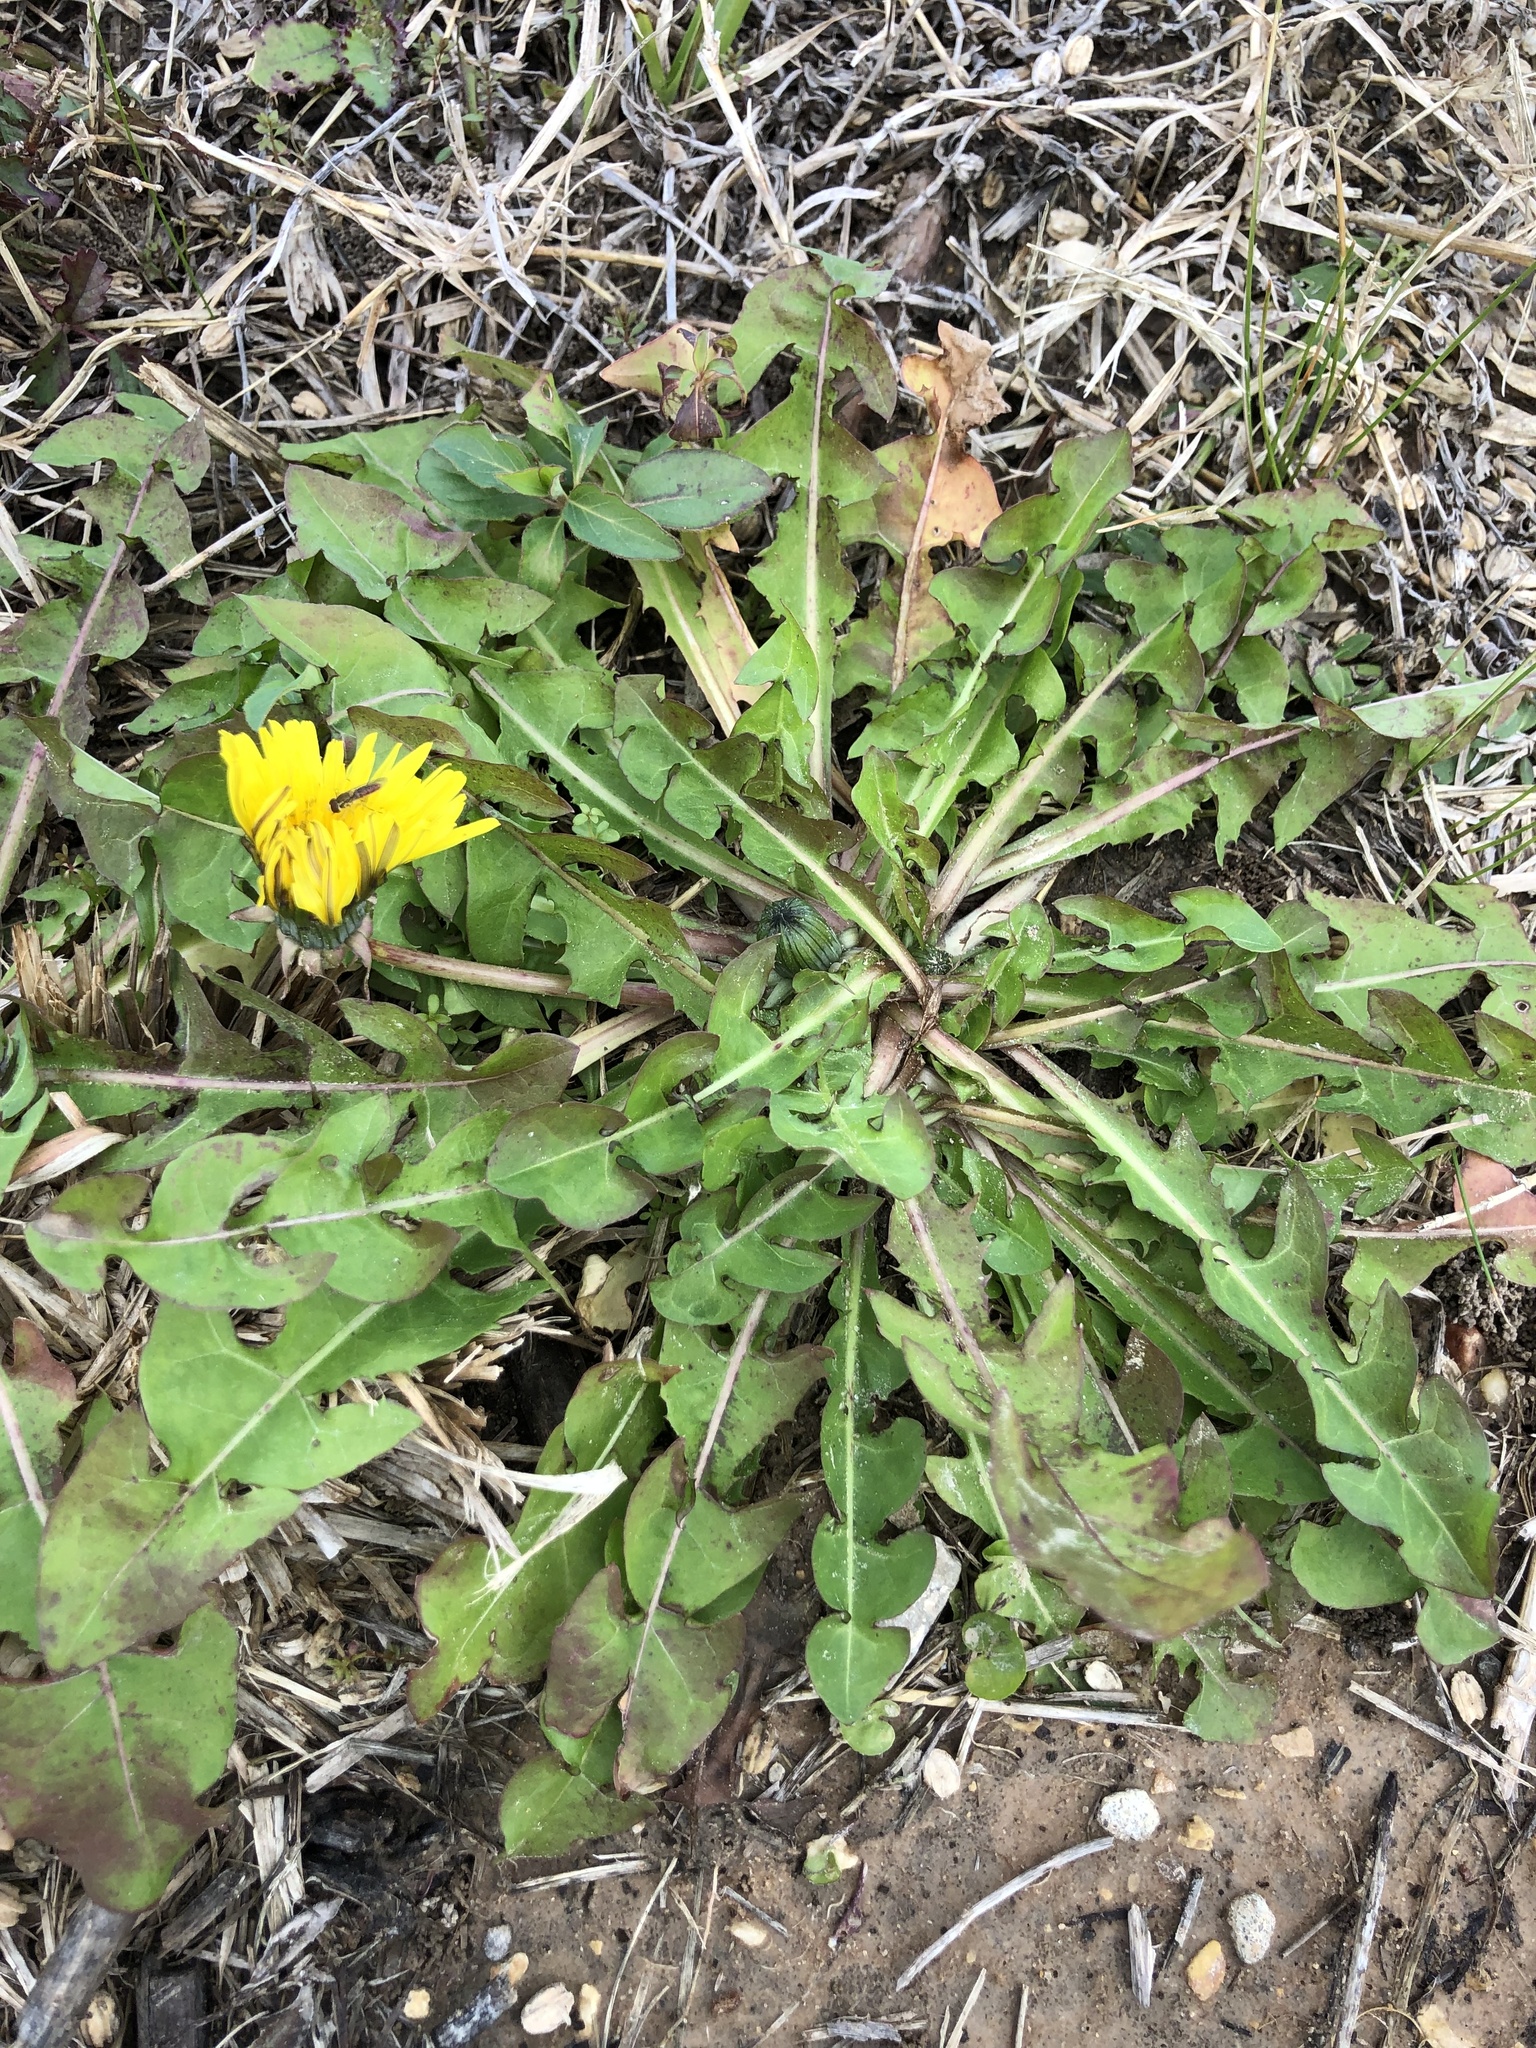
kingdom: Plantae
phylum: Tracheophyta
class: Magnoliopsida
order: Asterales
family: Asteraceae
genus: Taraxacum
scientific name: Taraxacum
